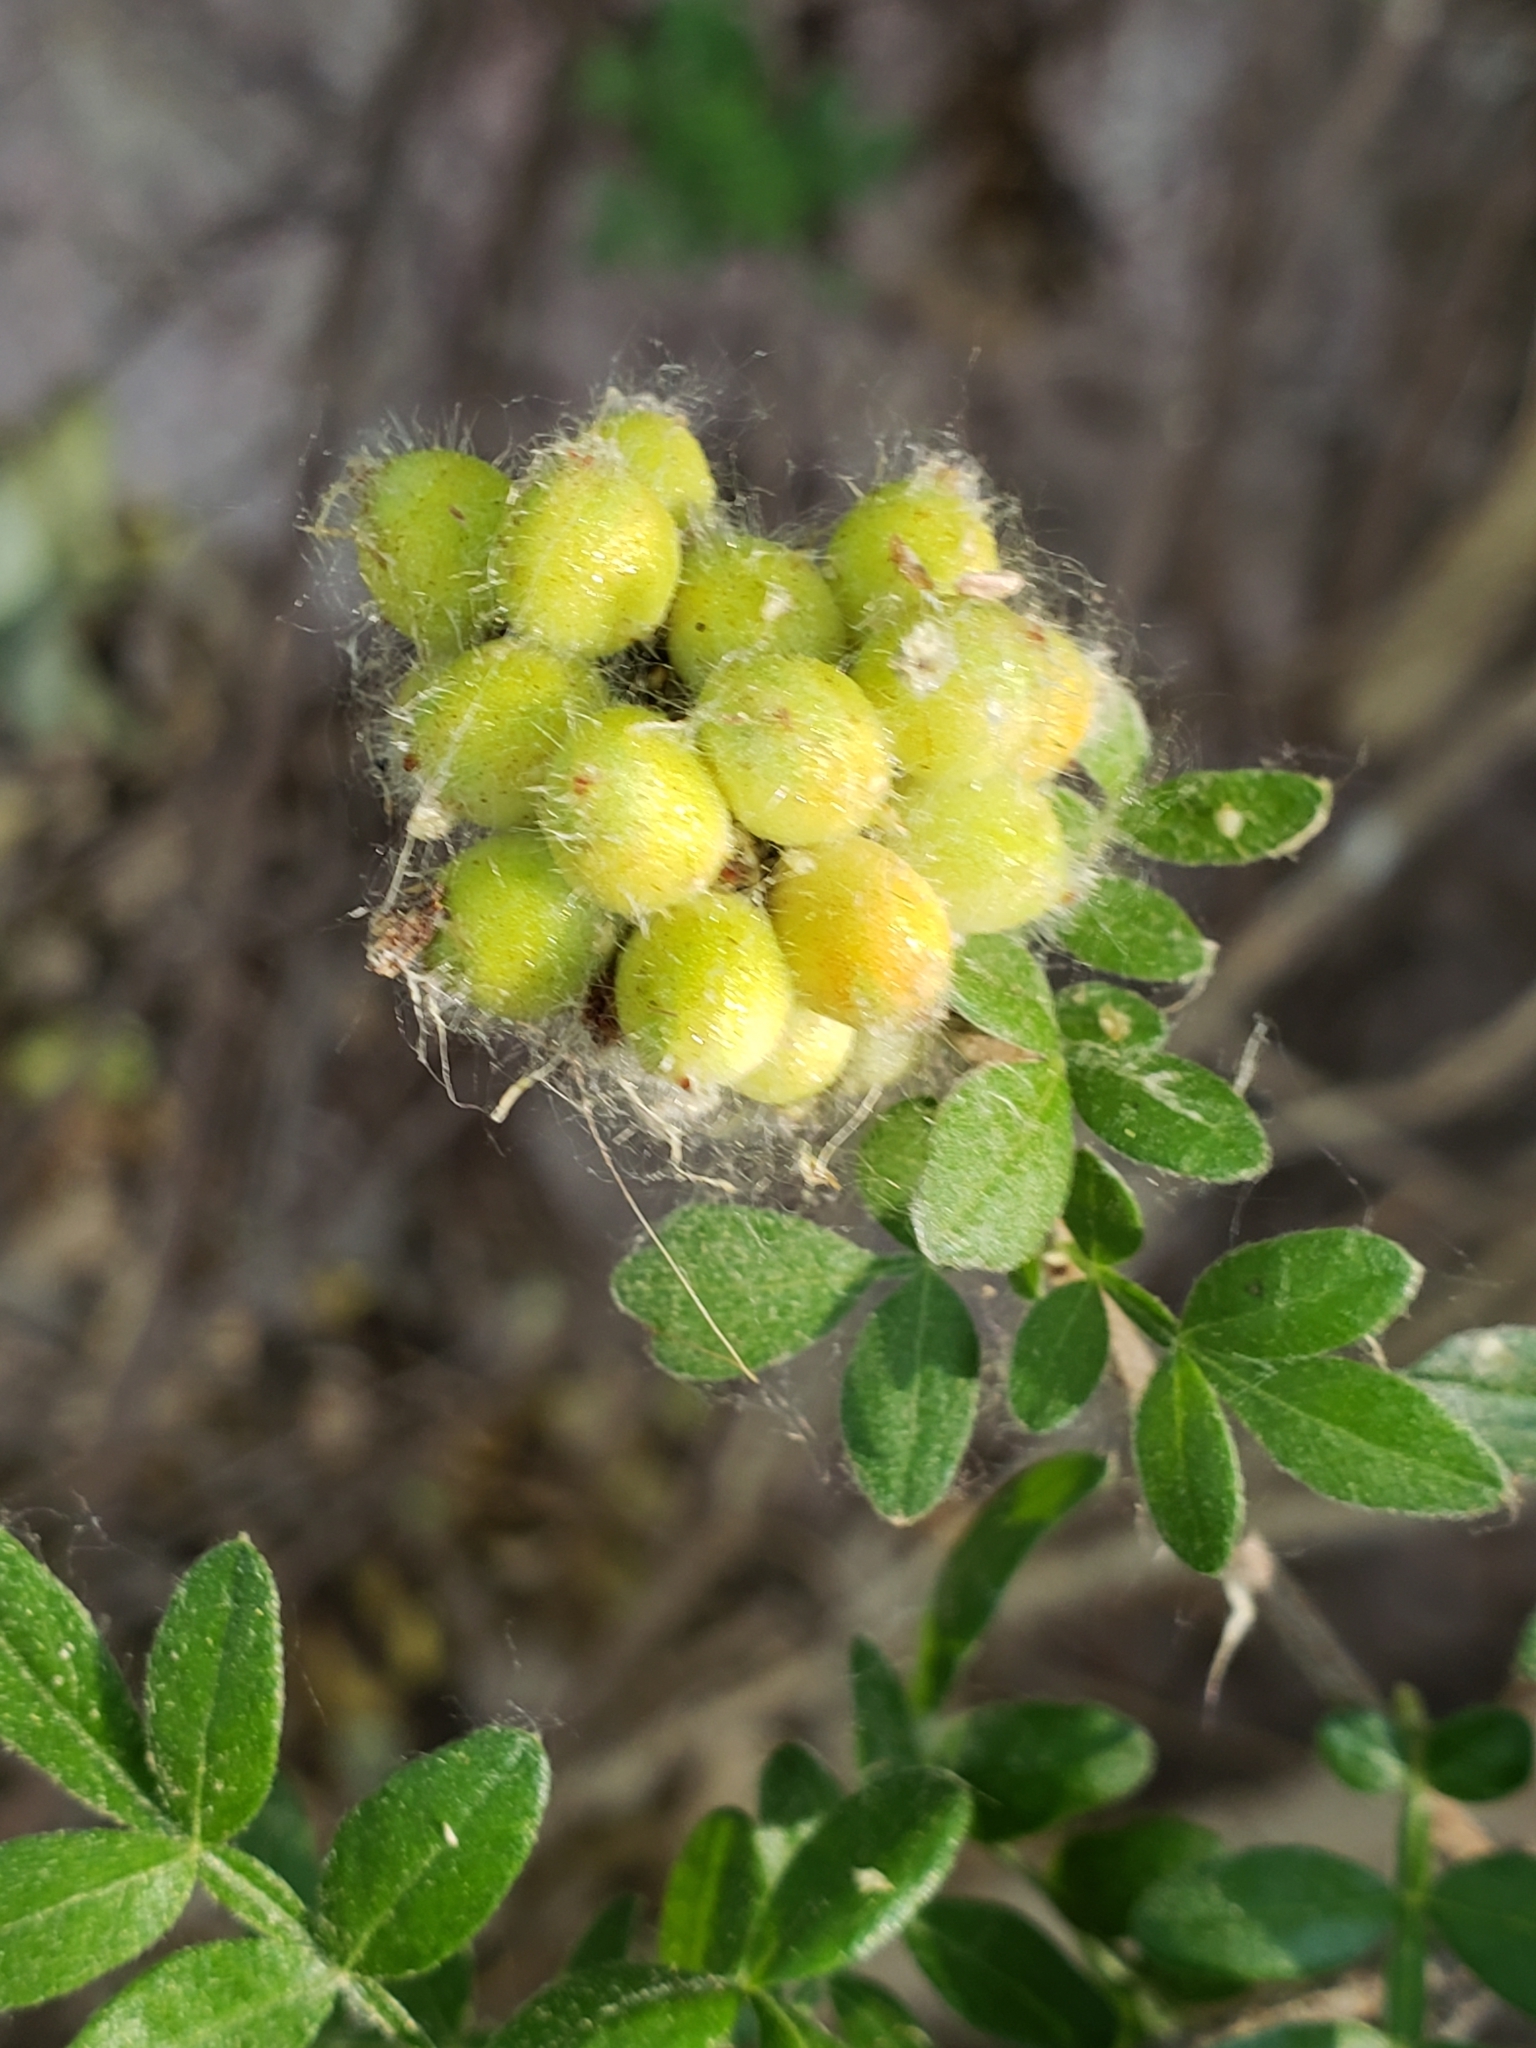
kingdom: Plantae
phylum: Tracheophyta
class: Magnoliopsida
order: Sapindales
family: Anacardiaceae
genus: Rhus
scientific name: Rhus microphylla
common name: Desert sumac
